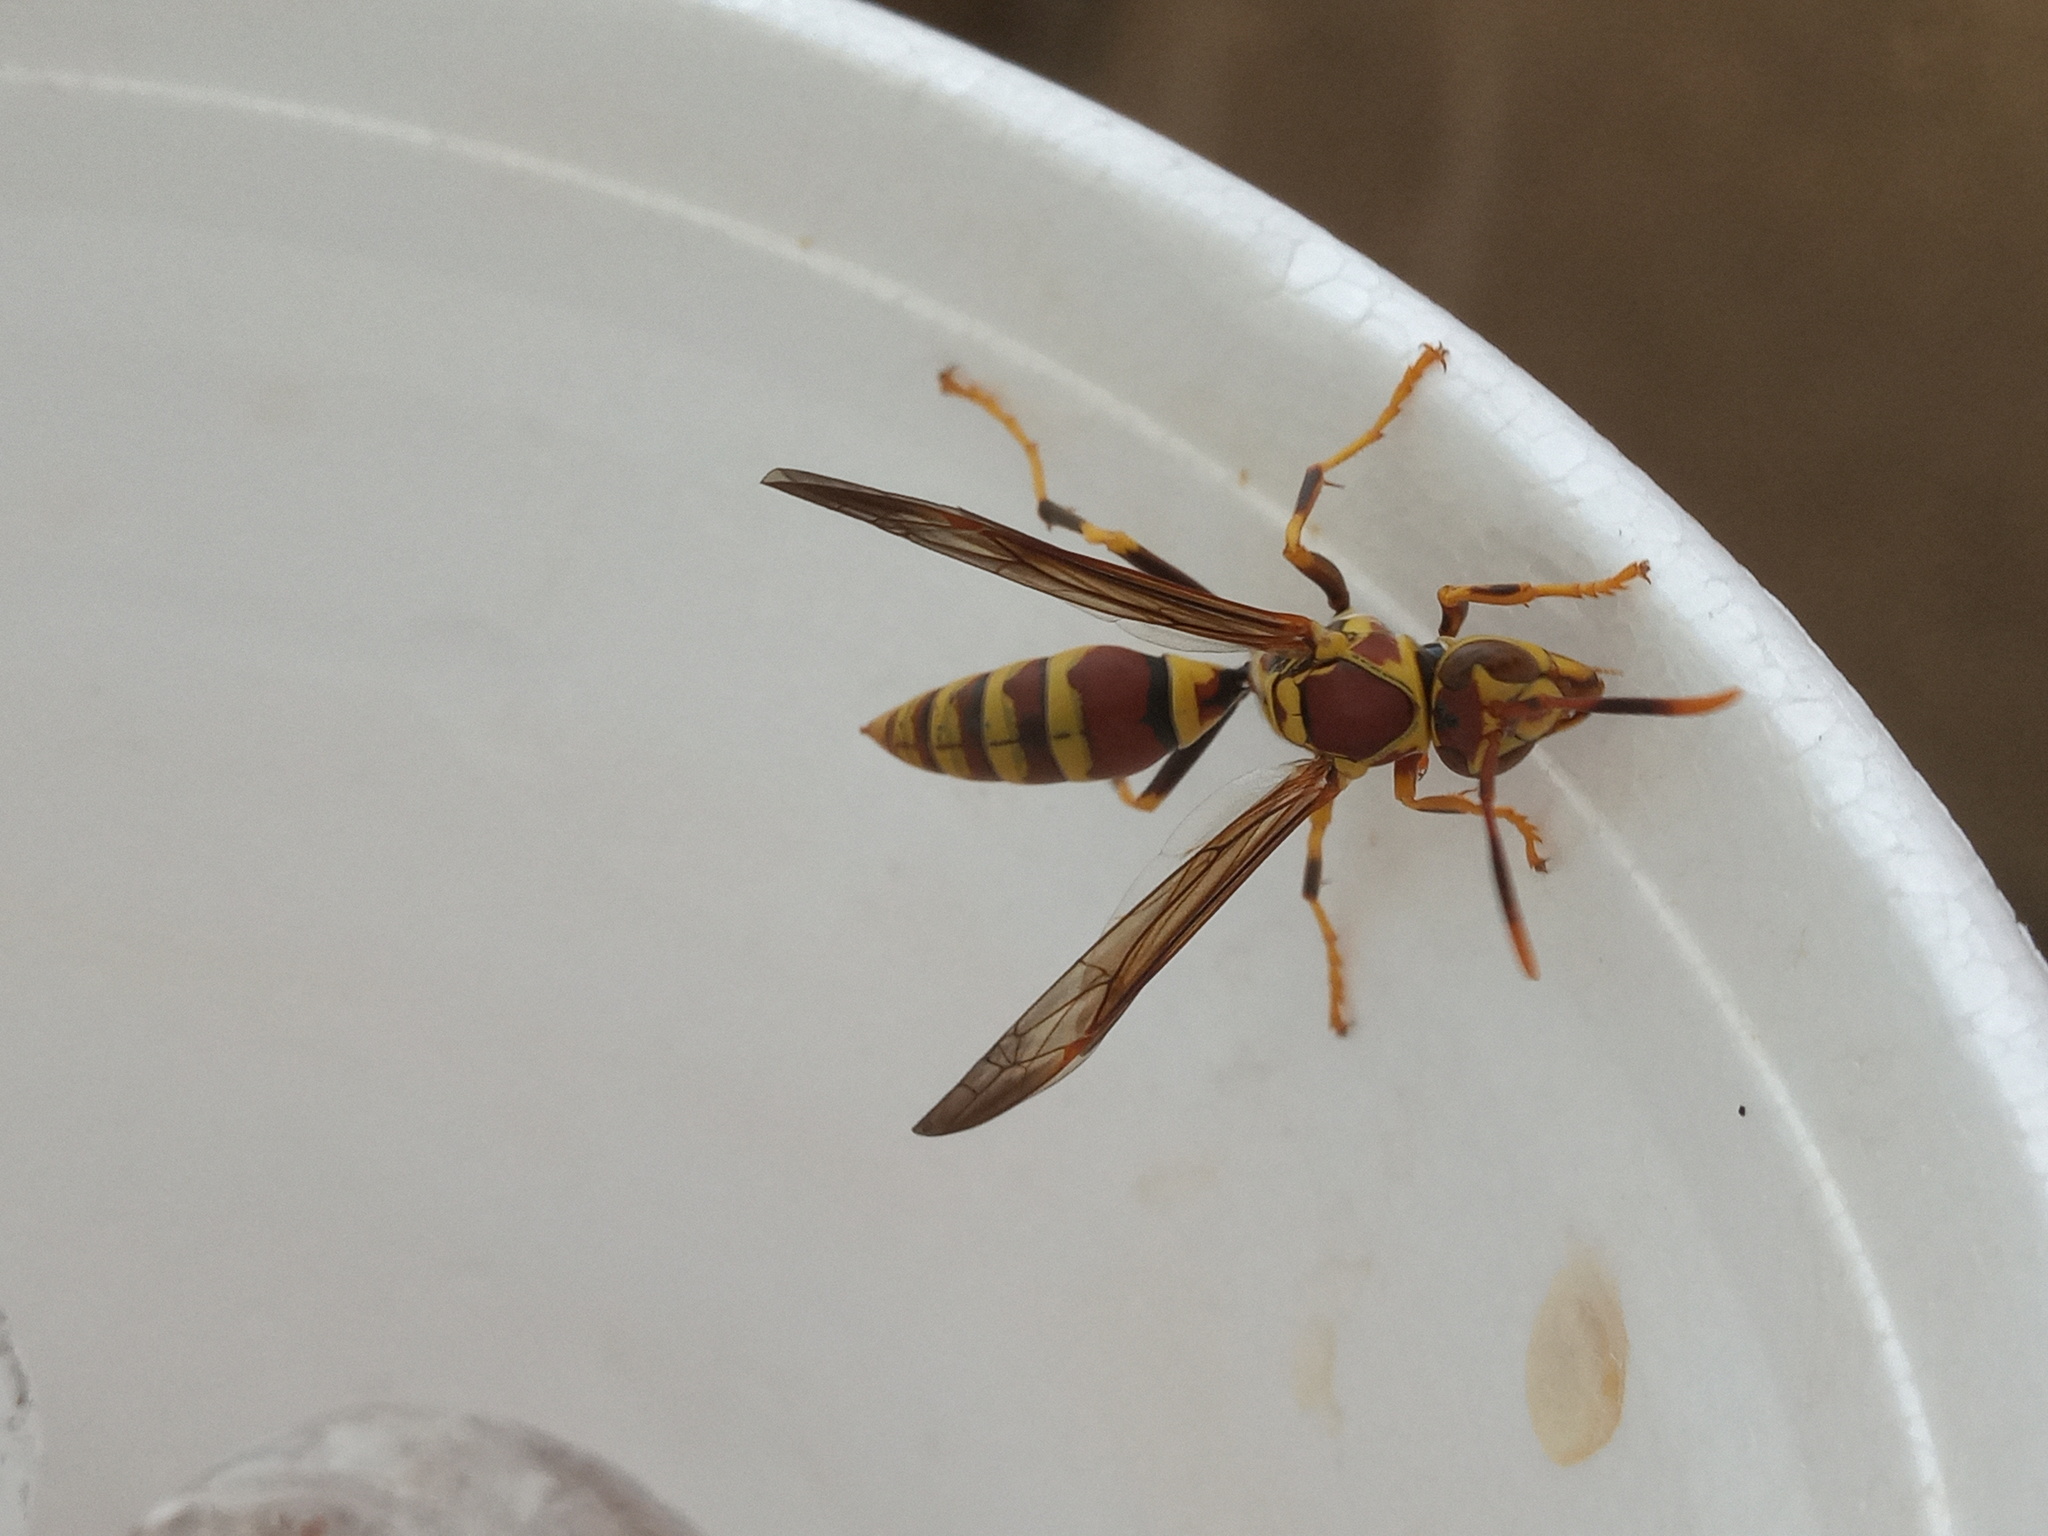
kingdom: Animalia
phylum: Arthropoda
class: Insecta
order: Hymenoptera
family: Eumenidae
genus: Polistes
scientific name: Polistes exclamans
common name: Paper wasp
